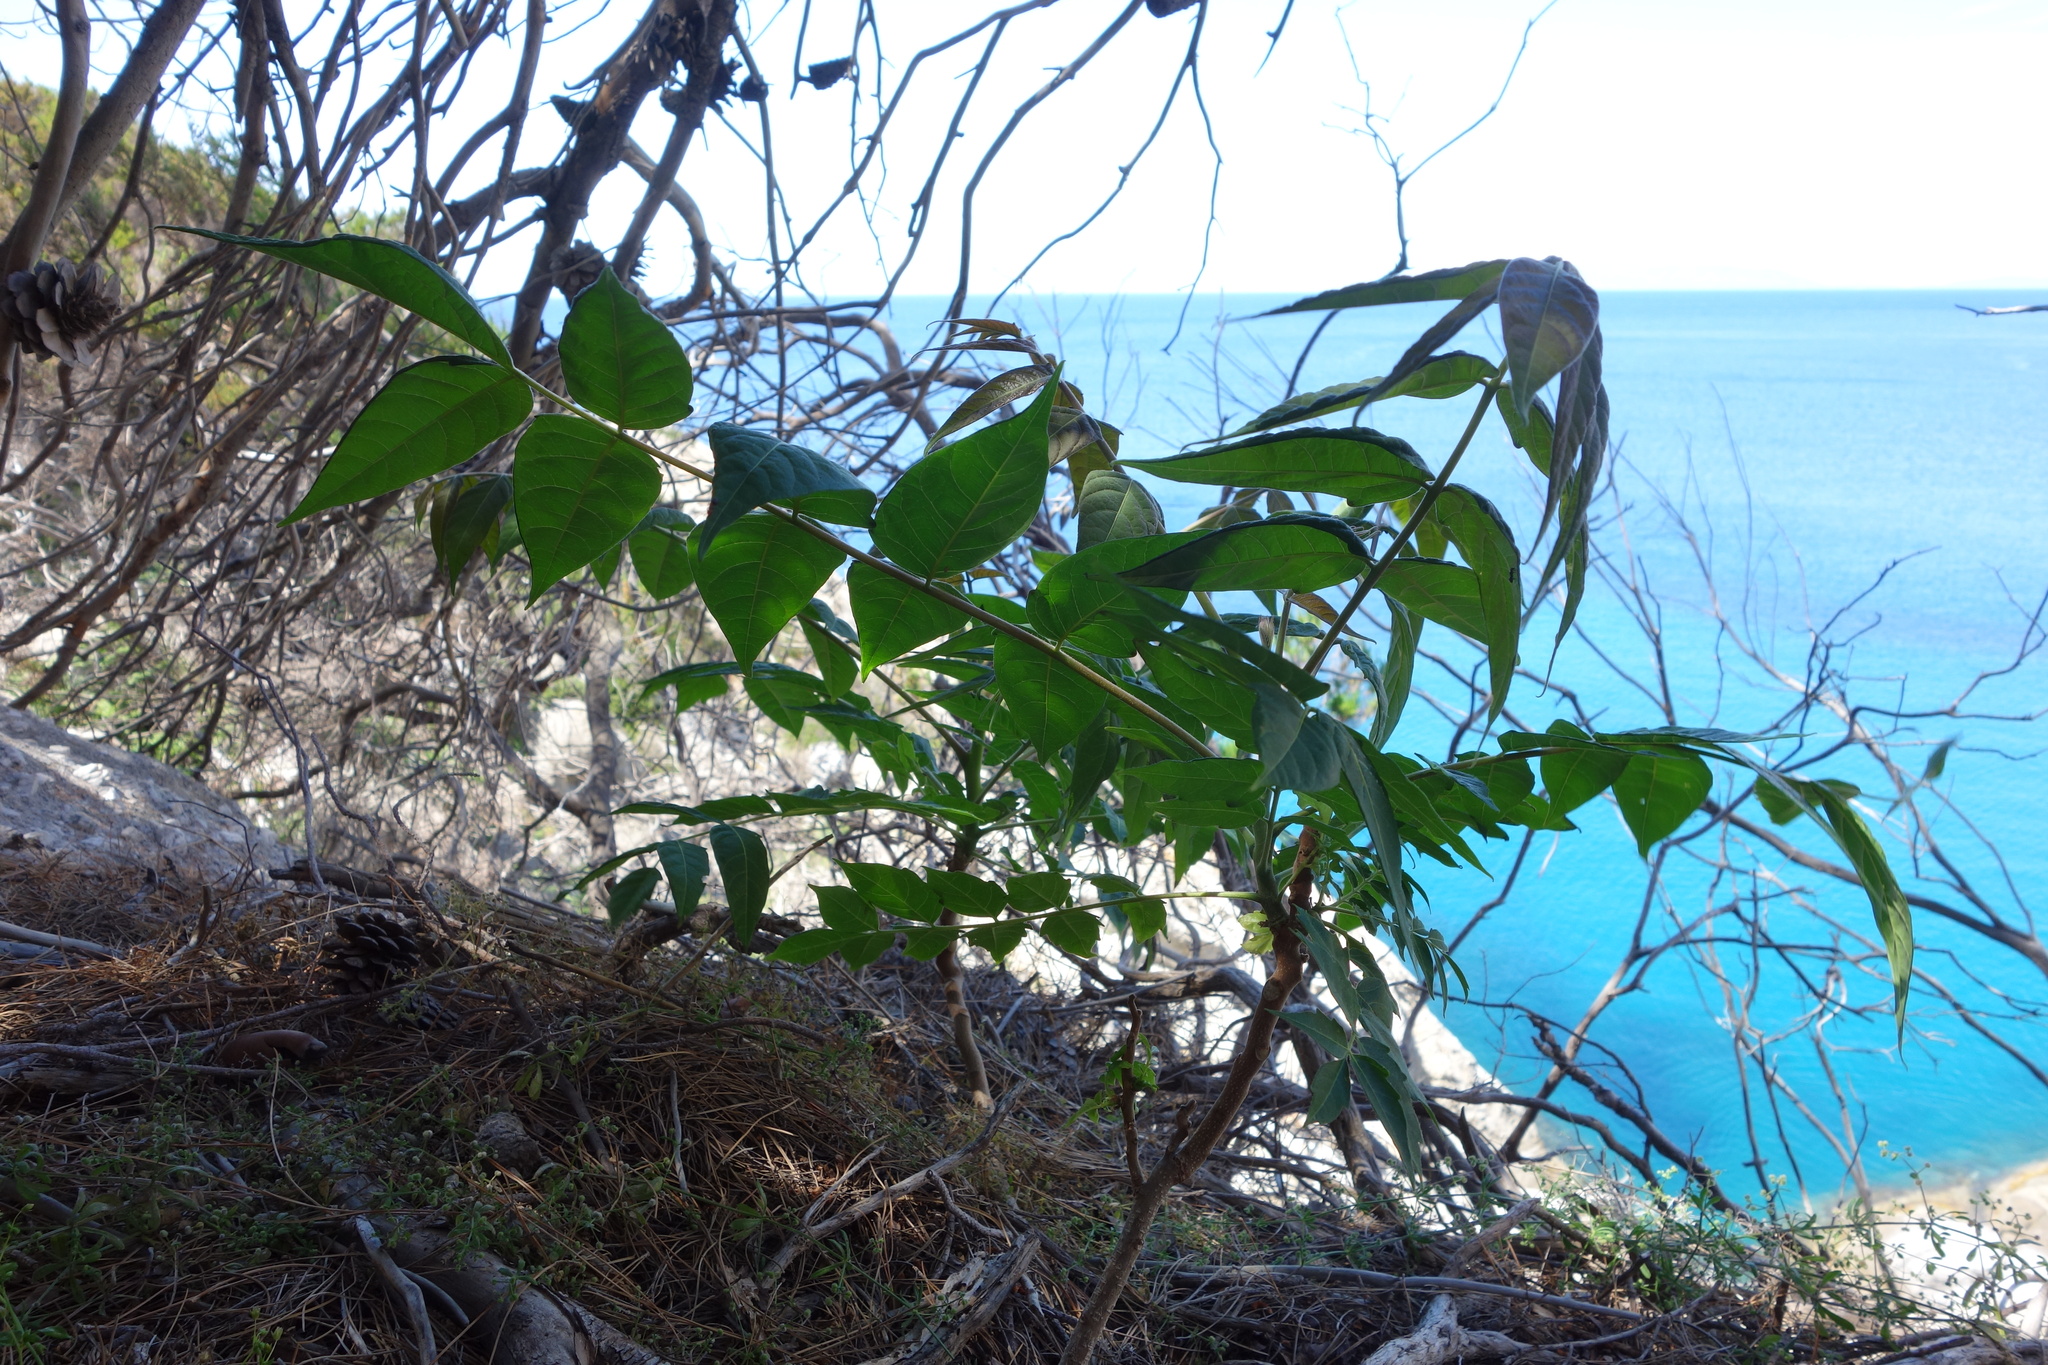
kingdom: Plantae
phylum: Tracheophyta
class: Magnoliopsida
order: Sapindales
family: Simaroubaceae
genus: Ailanthus
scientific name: Ailanthus altissima
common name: Tree-of-heaven
